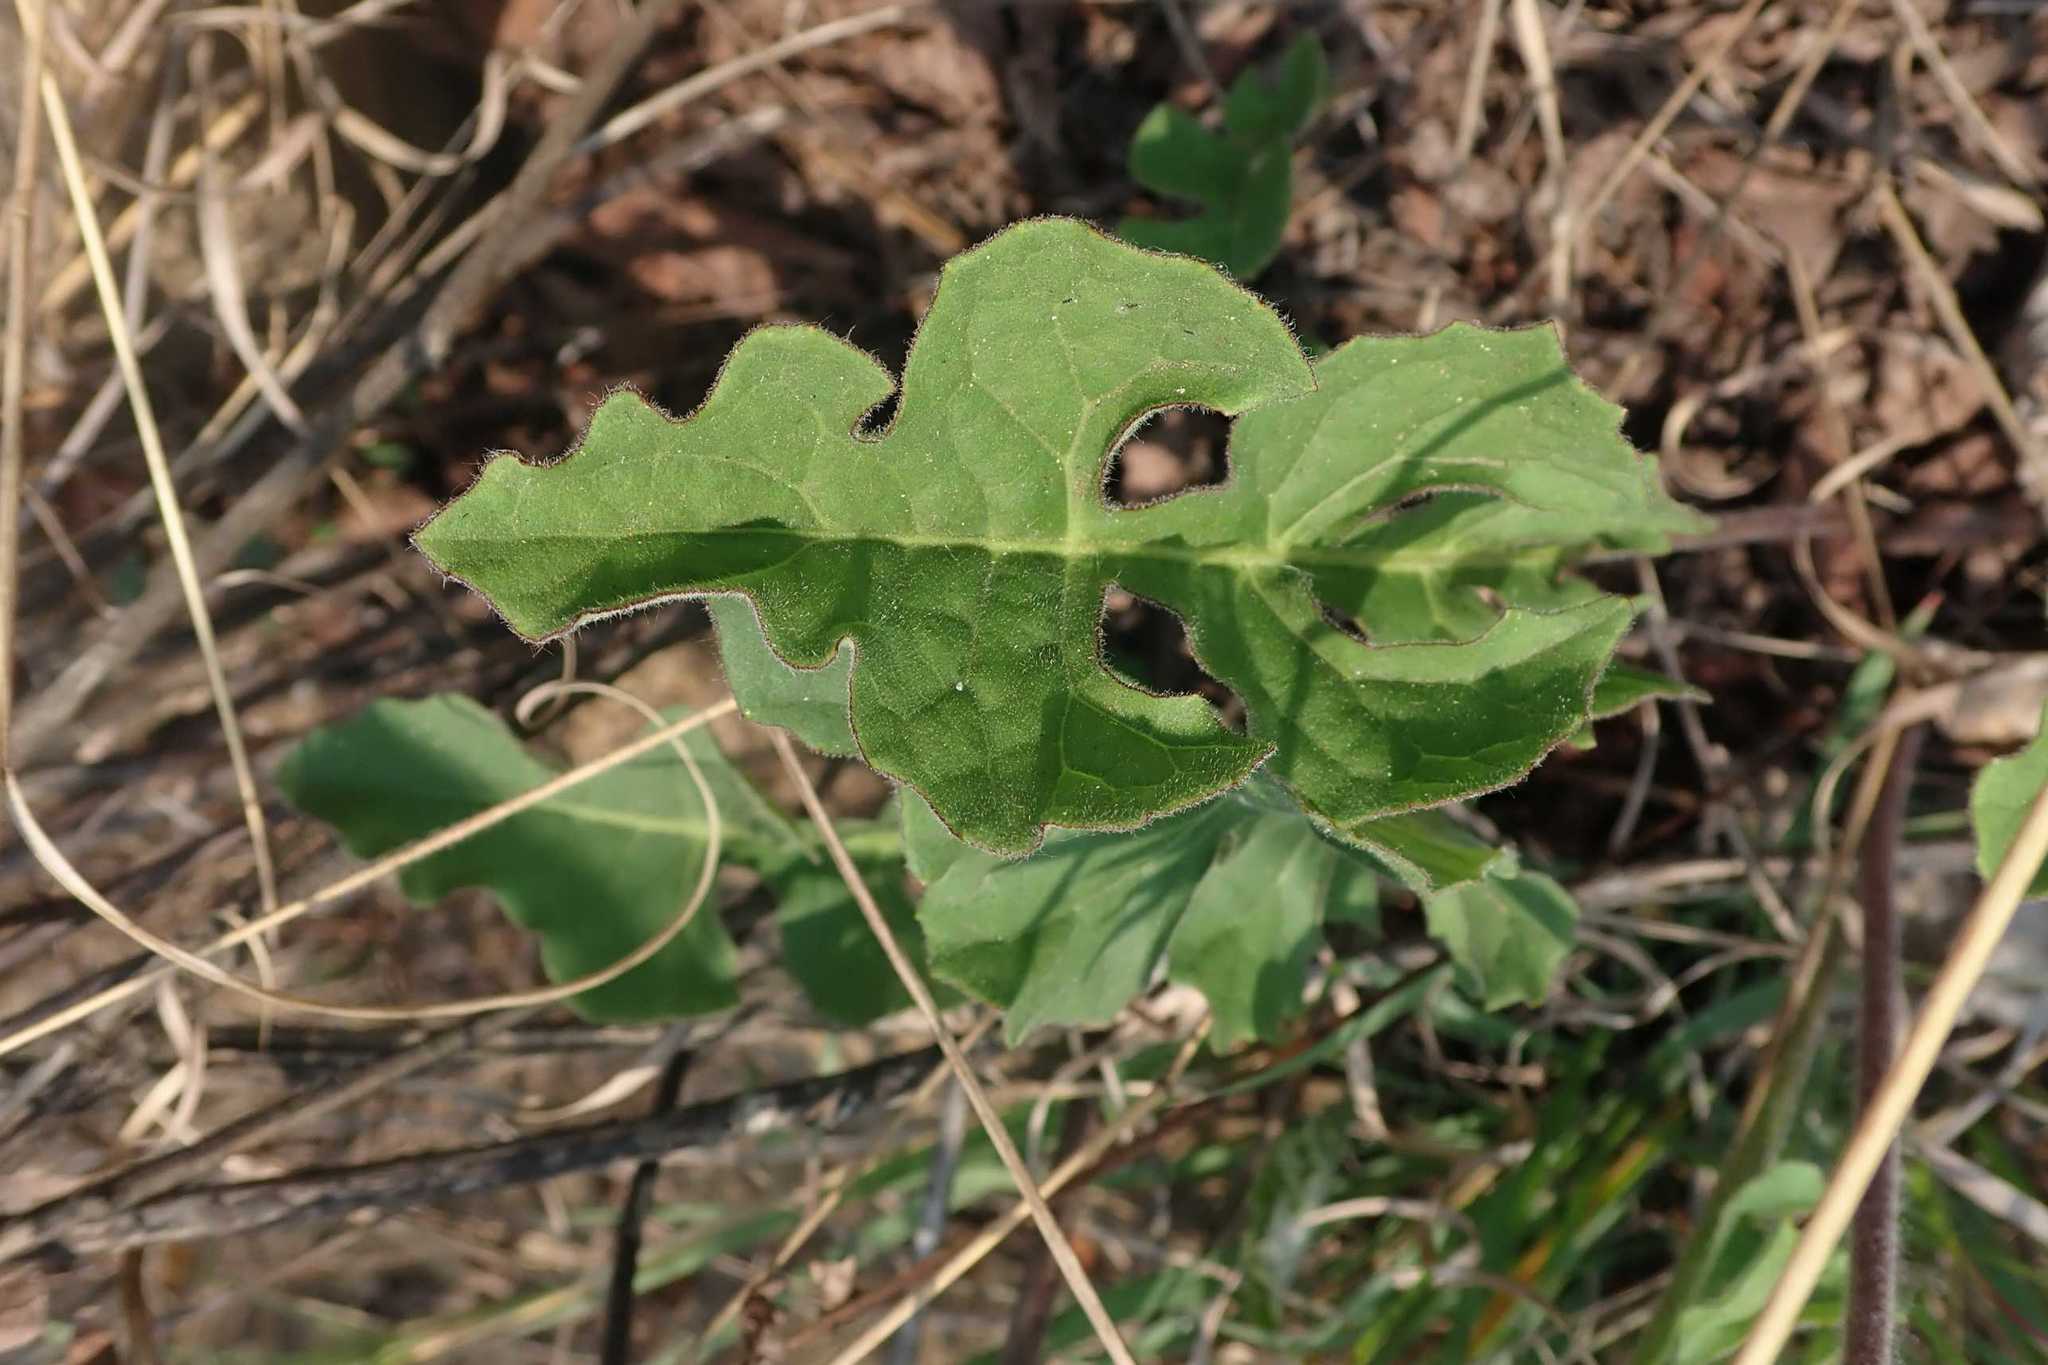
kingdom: Plantae
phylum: Tracheophyta
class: Magnoliopsida
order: Asterales
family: Asteraceae
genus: Gerbera
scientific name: Gerbera jamesonii
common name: African daisy
